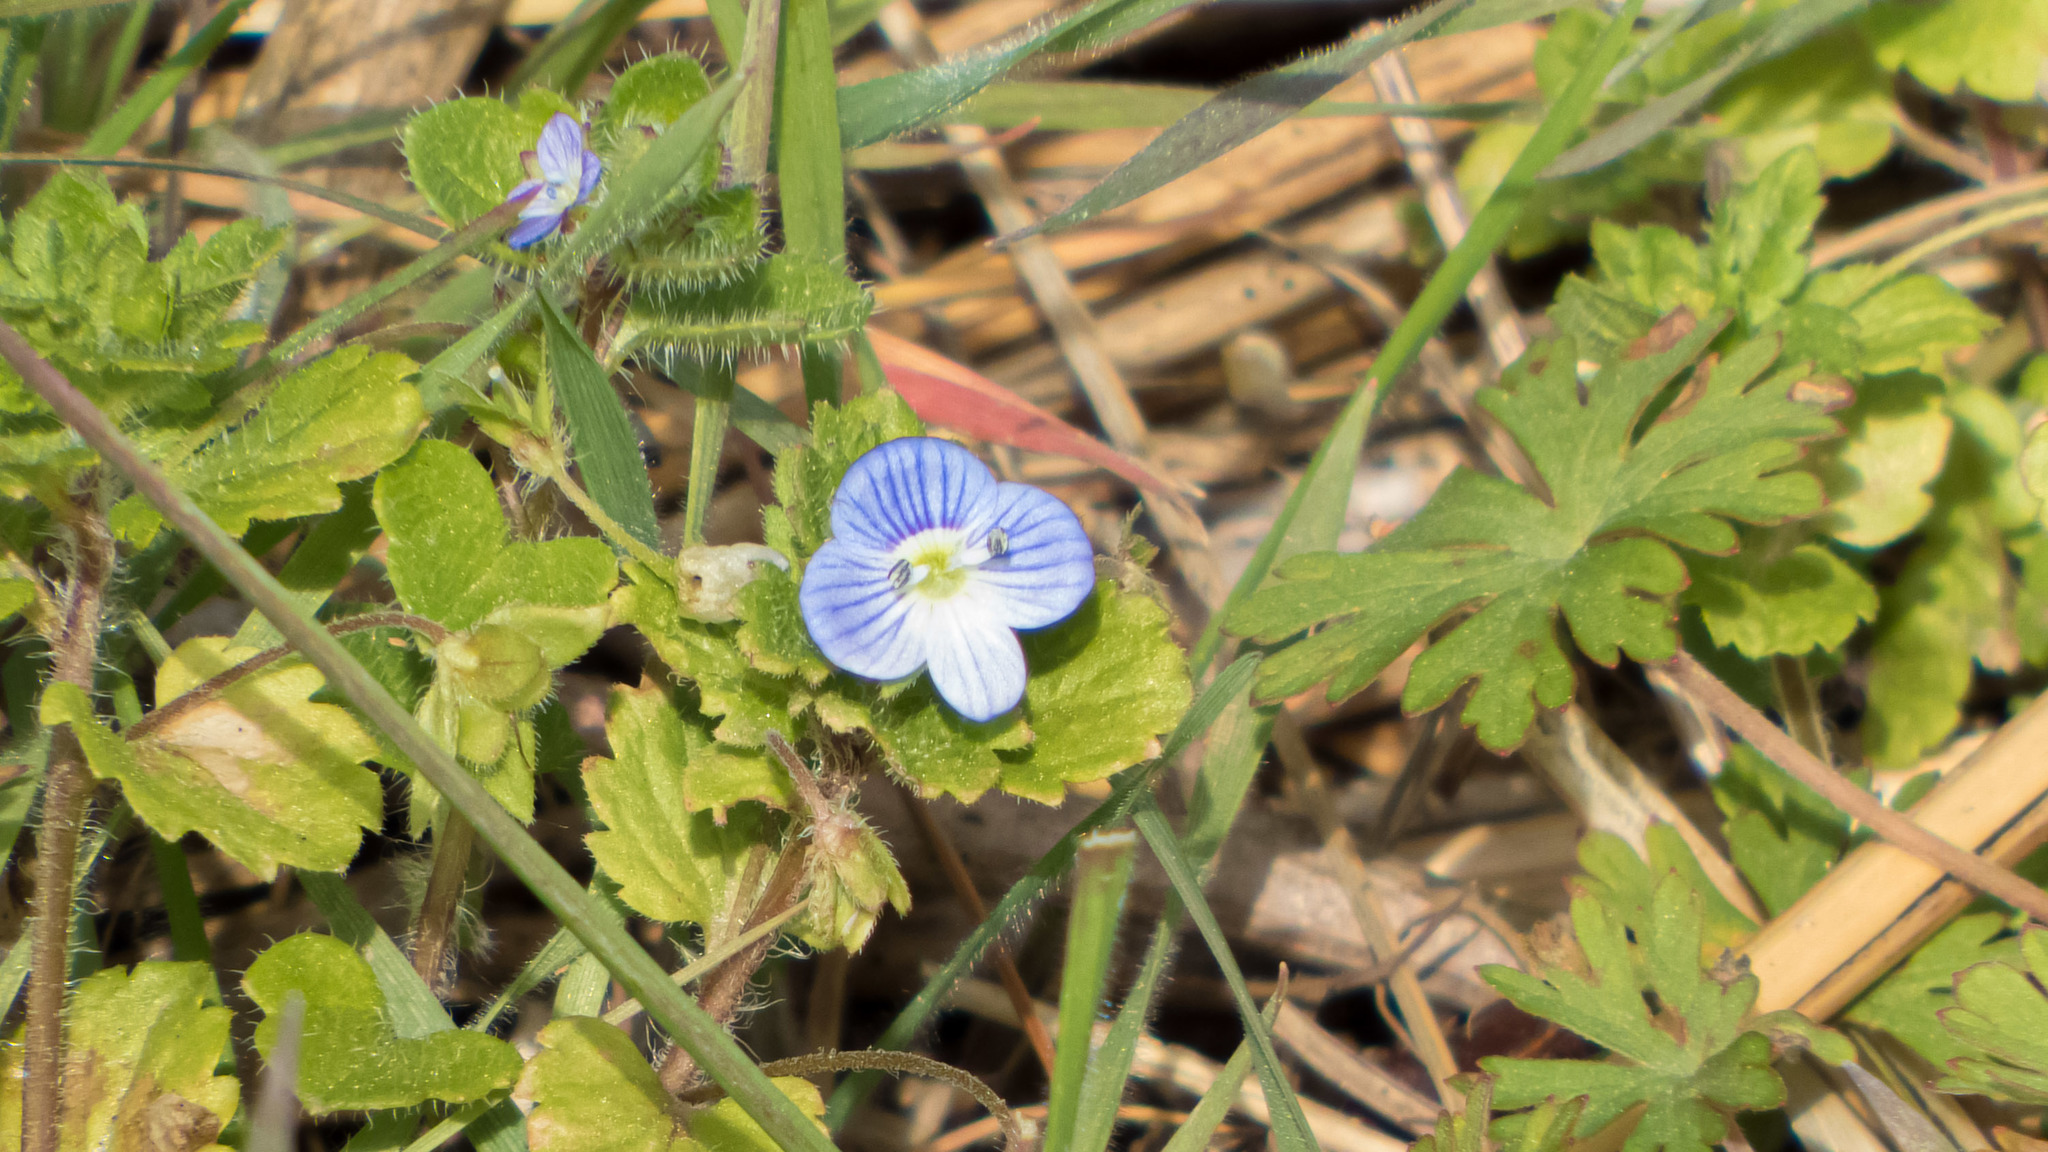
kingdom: Plantae
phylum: Tracheophyta
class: Magnoliopsida
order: Lamiales
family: Plantaginaceae
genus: Veronica
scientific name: Veronica persica
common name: Common field-speedwell
